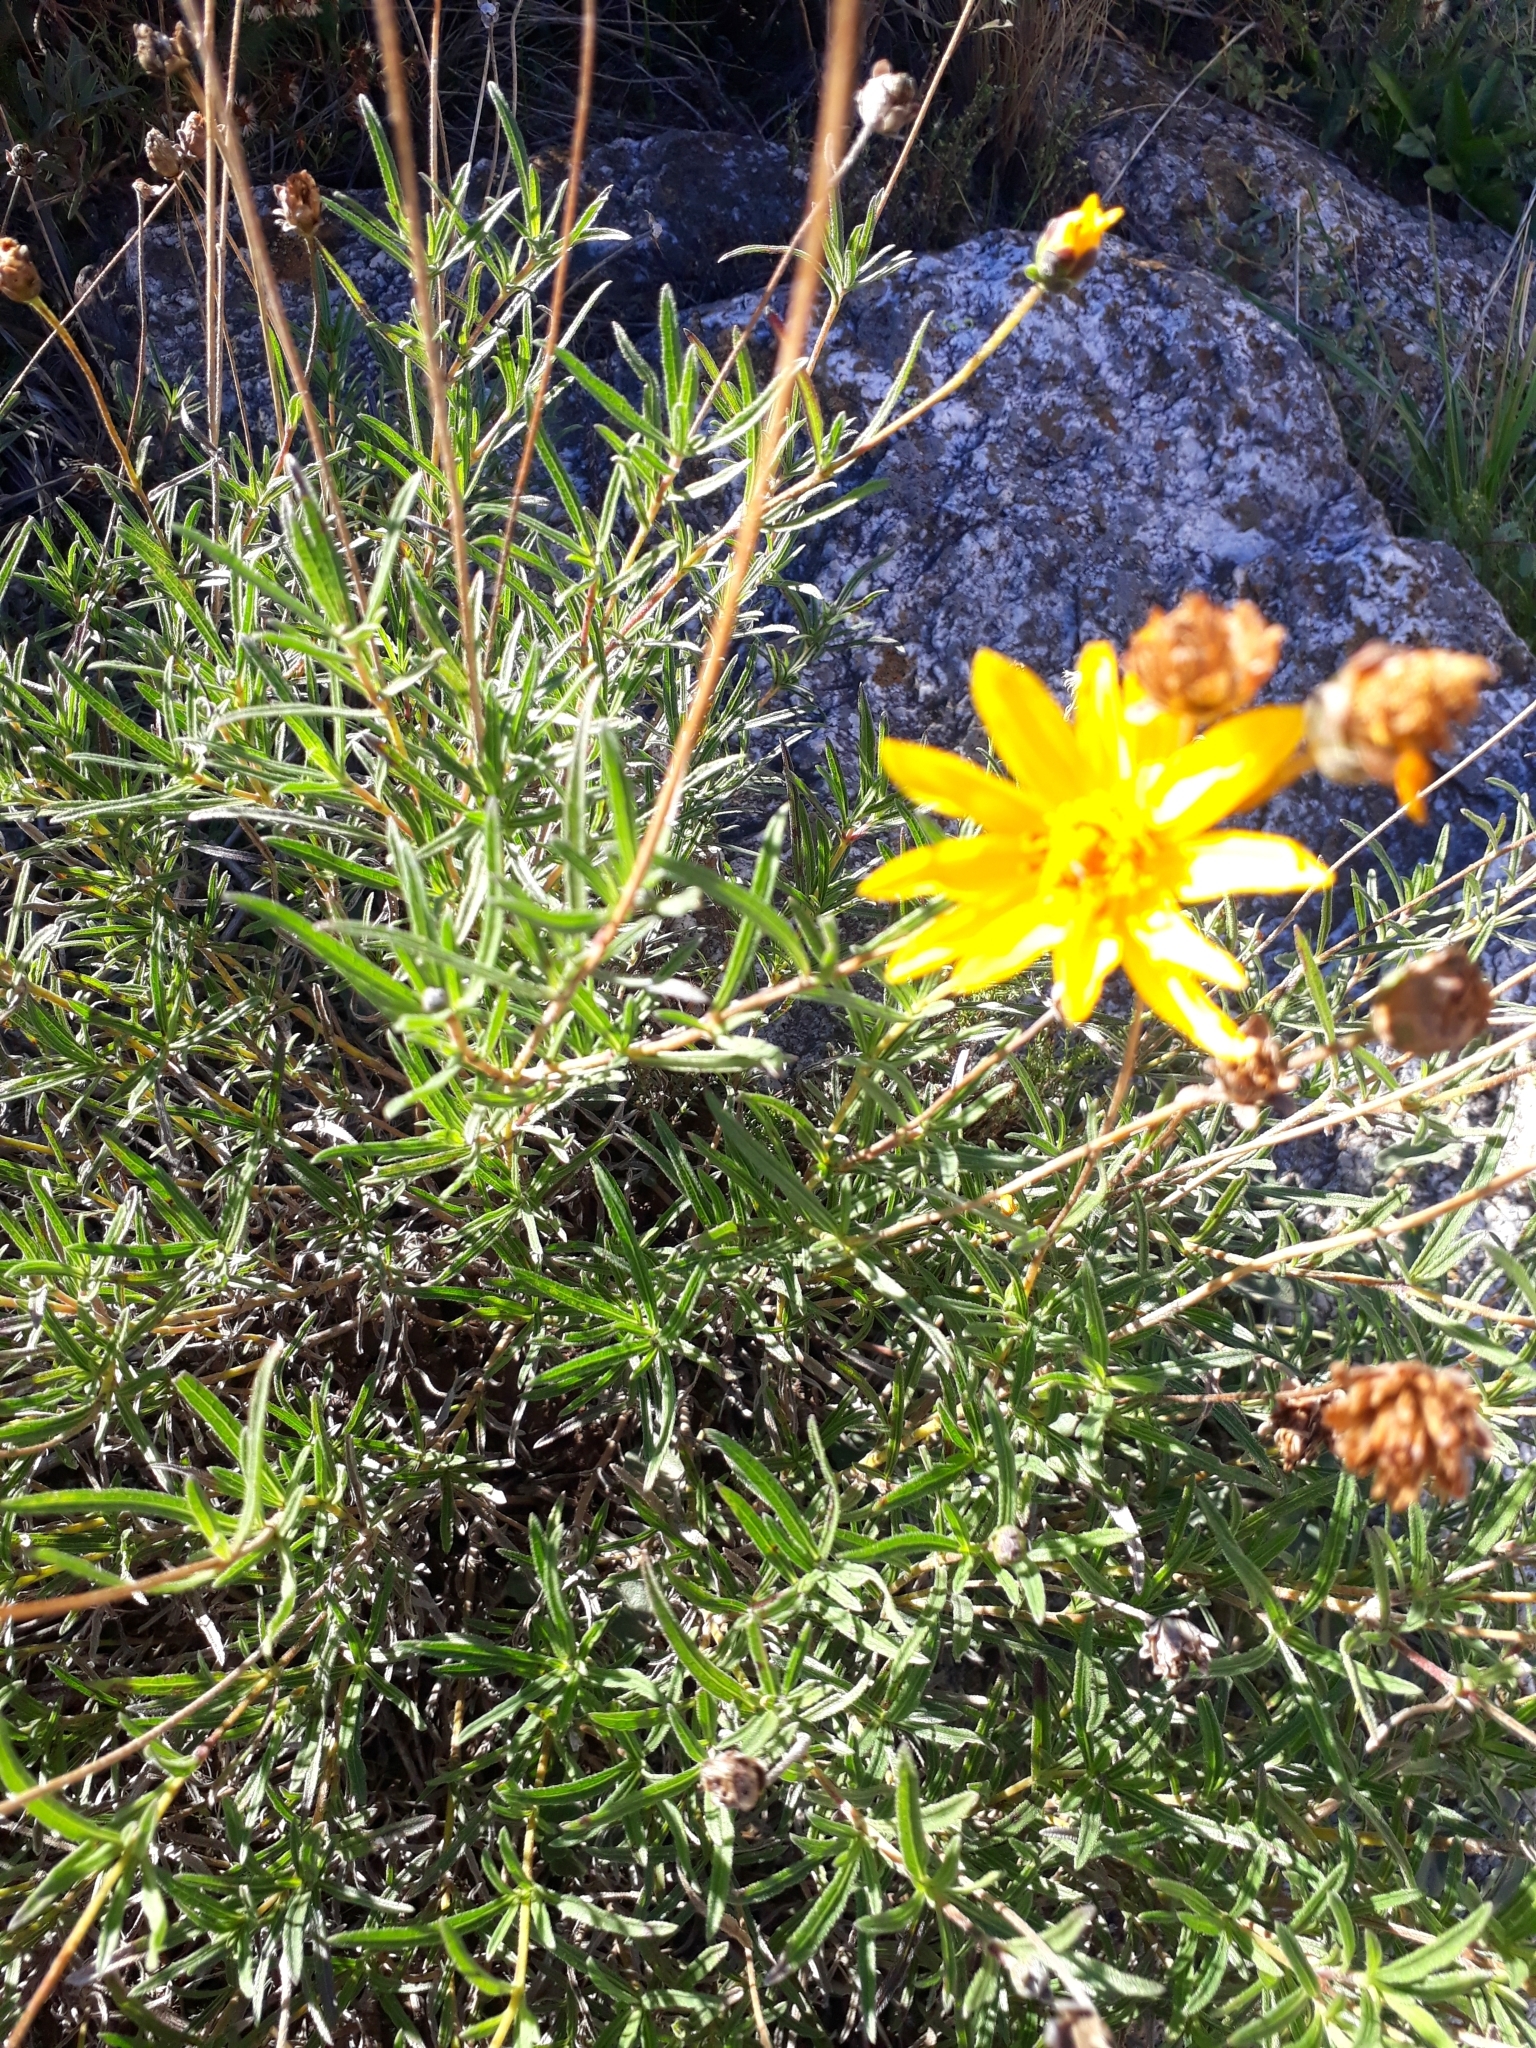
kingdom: Plantae
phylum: Tracheophyta
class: Magnoliopsida
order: Asterales
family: Asteraceae
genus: Zexmenia
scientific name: Zexmenia buphtalmiflora
